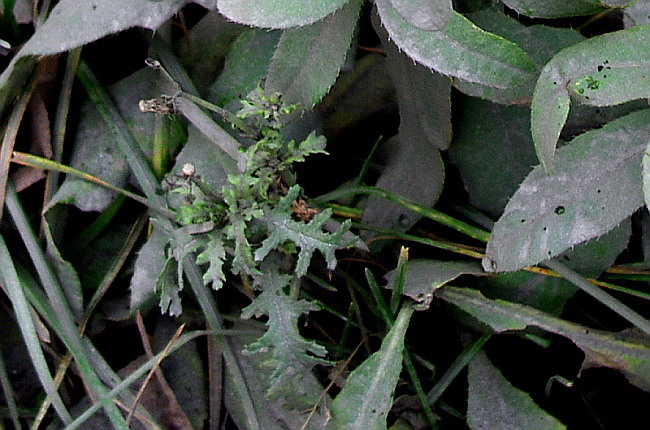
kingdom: Plantae
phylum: Tracheophyta
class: Magnoliopsida
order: Asterales
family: Asteraceae
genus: Senecio
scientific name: Senecio vulgaris
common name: Old-man-in-the-spring
